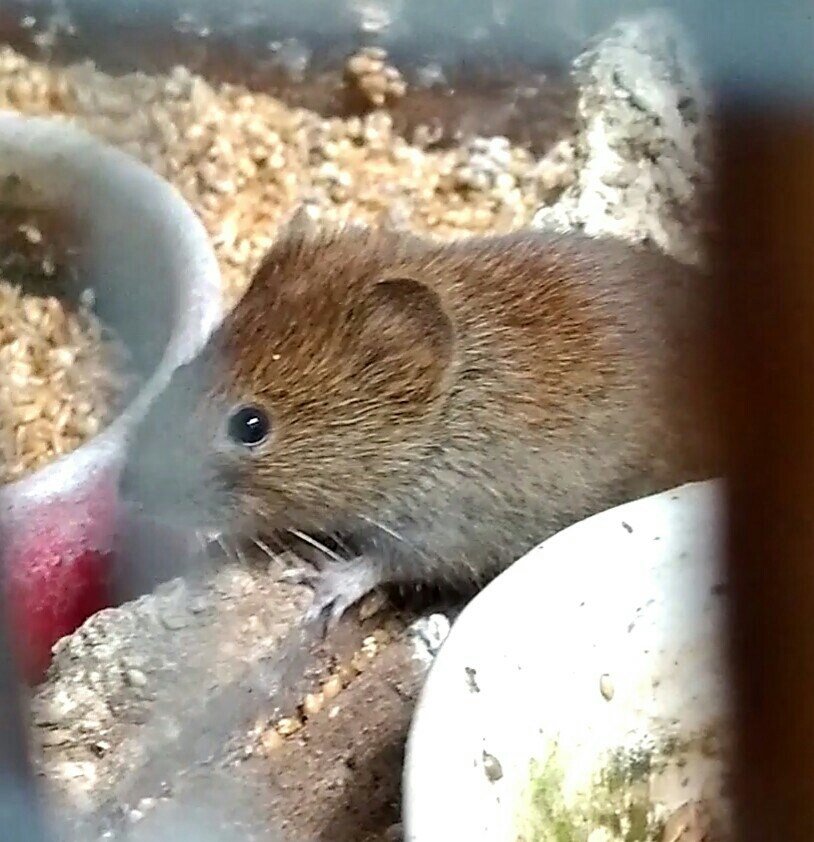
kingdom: Animalia
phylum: Chordata
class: Mammalia
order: Rodentia
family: Cricetidae
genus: Myodes
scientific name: Myodes glareolus
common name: Bank vole
